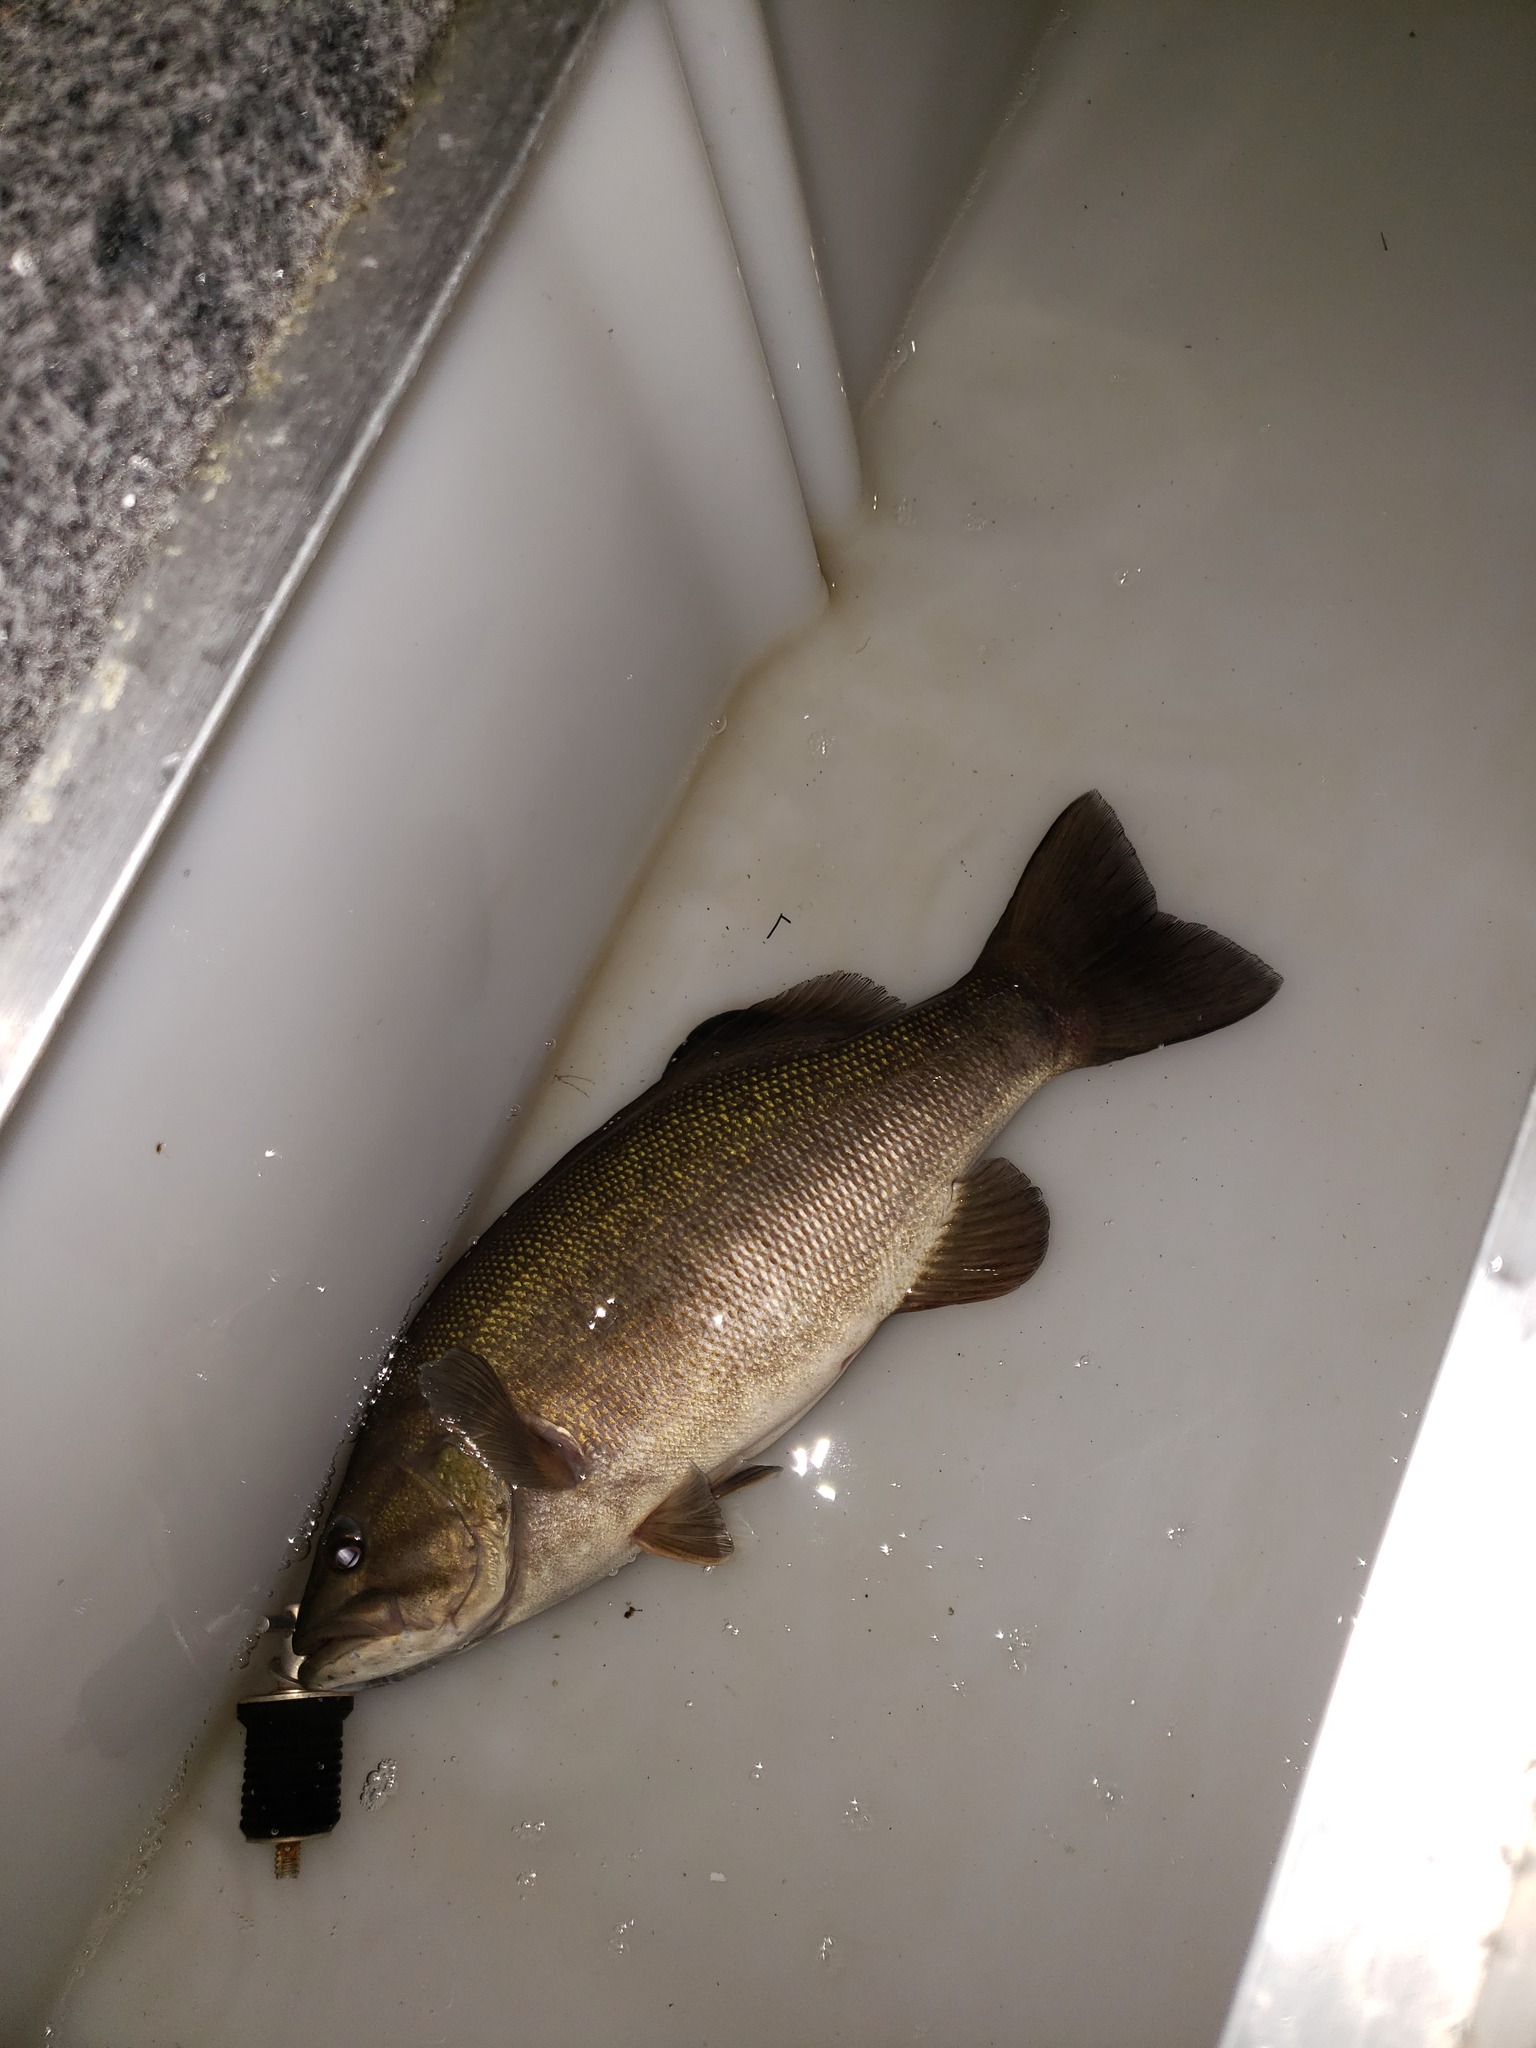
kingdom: Animalia
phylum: Chordata
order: Perciformes
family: Centrarchidae
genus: Micropterus
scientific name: Micropterus dolomieu
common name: Smallmouth bass
